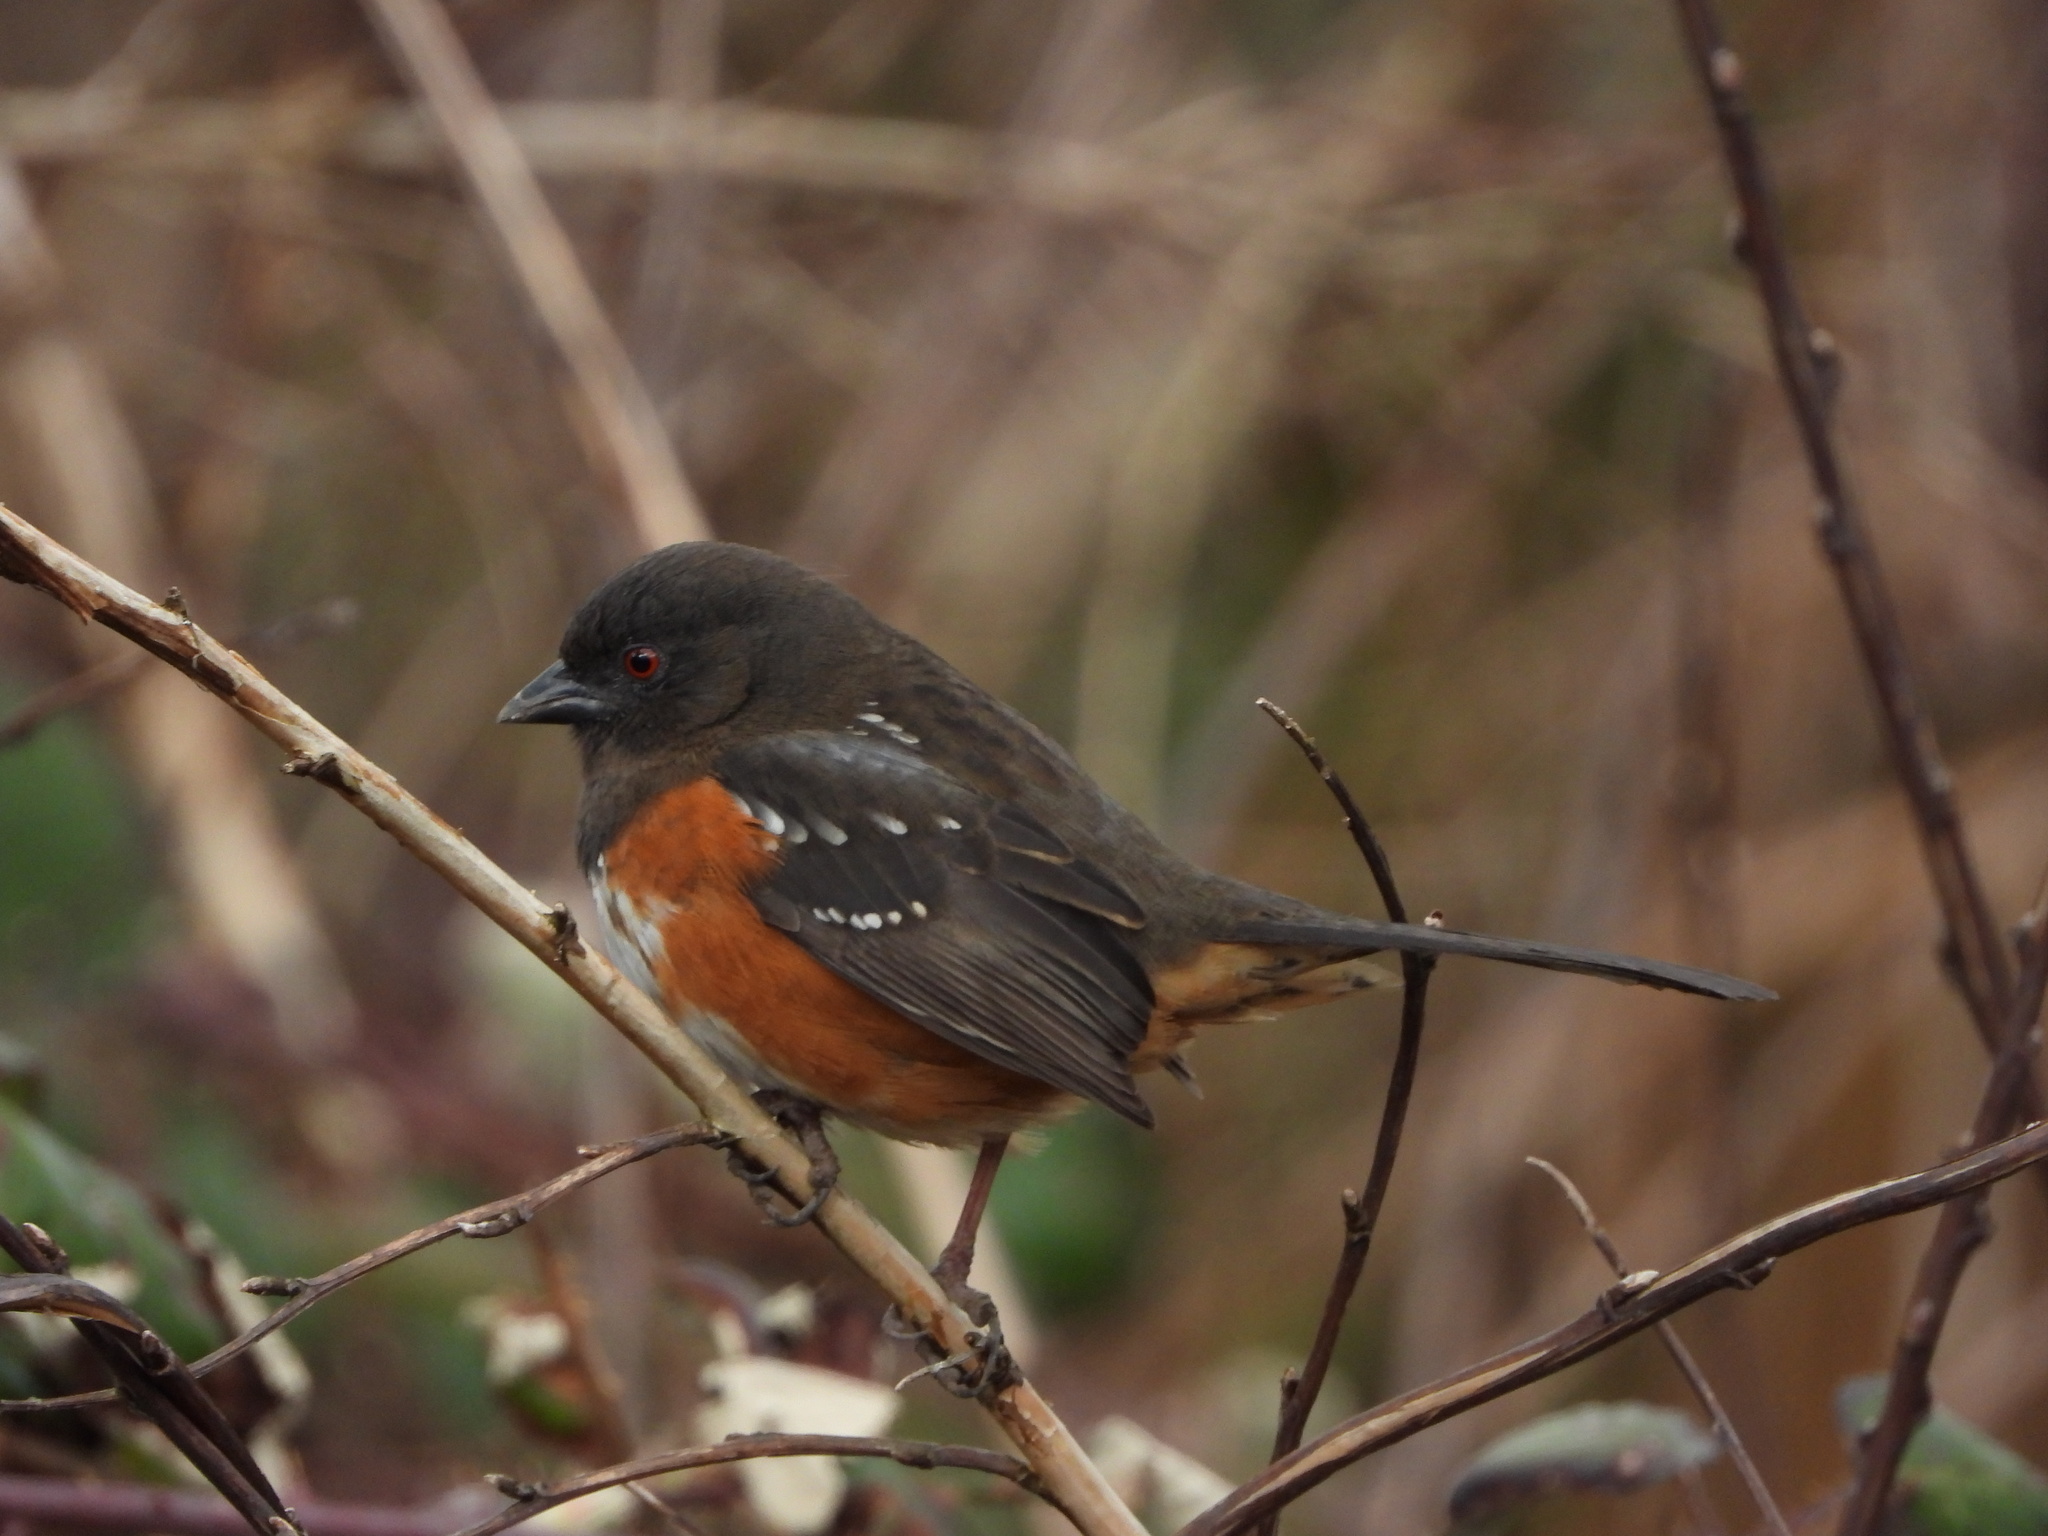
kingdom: Animalia
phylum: Chordata
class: Aves
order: Passeriformes
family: Passerellidae
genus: Pipilo
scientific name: Pipilo maculatus
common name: Spotted towhee
